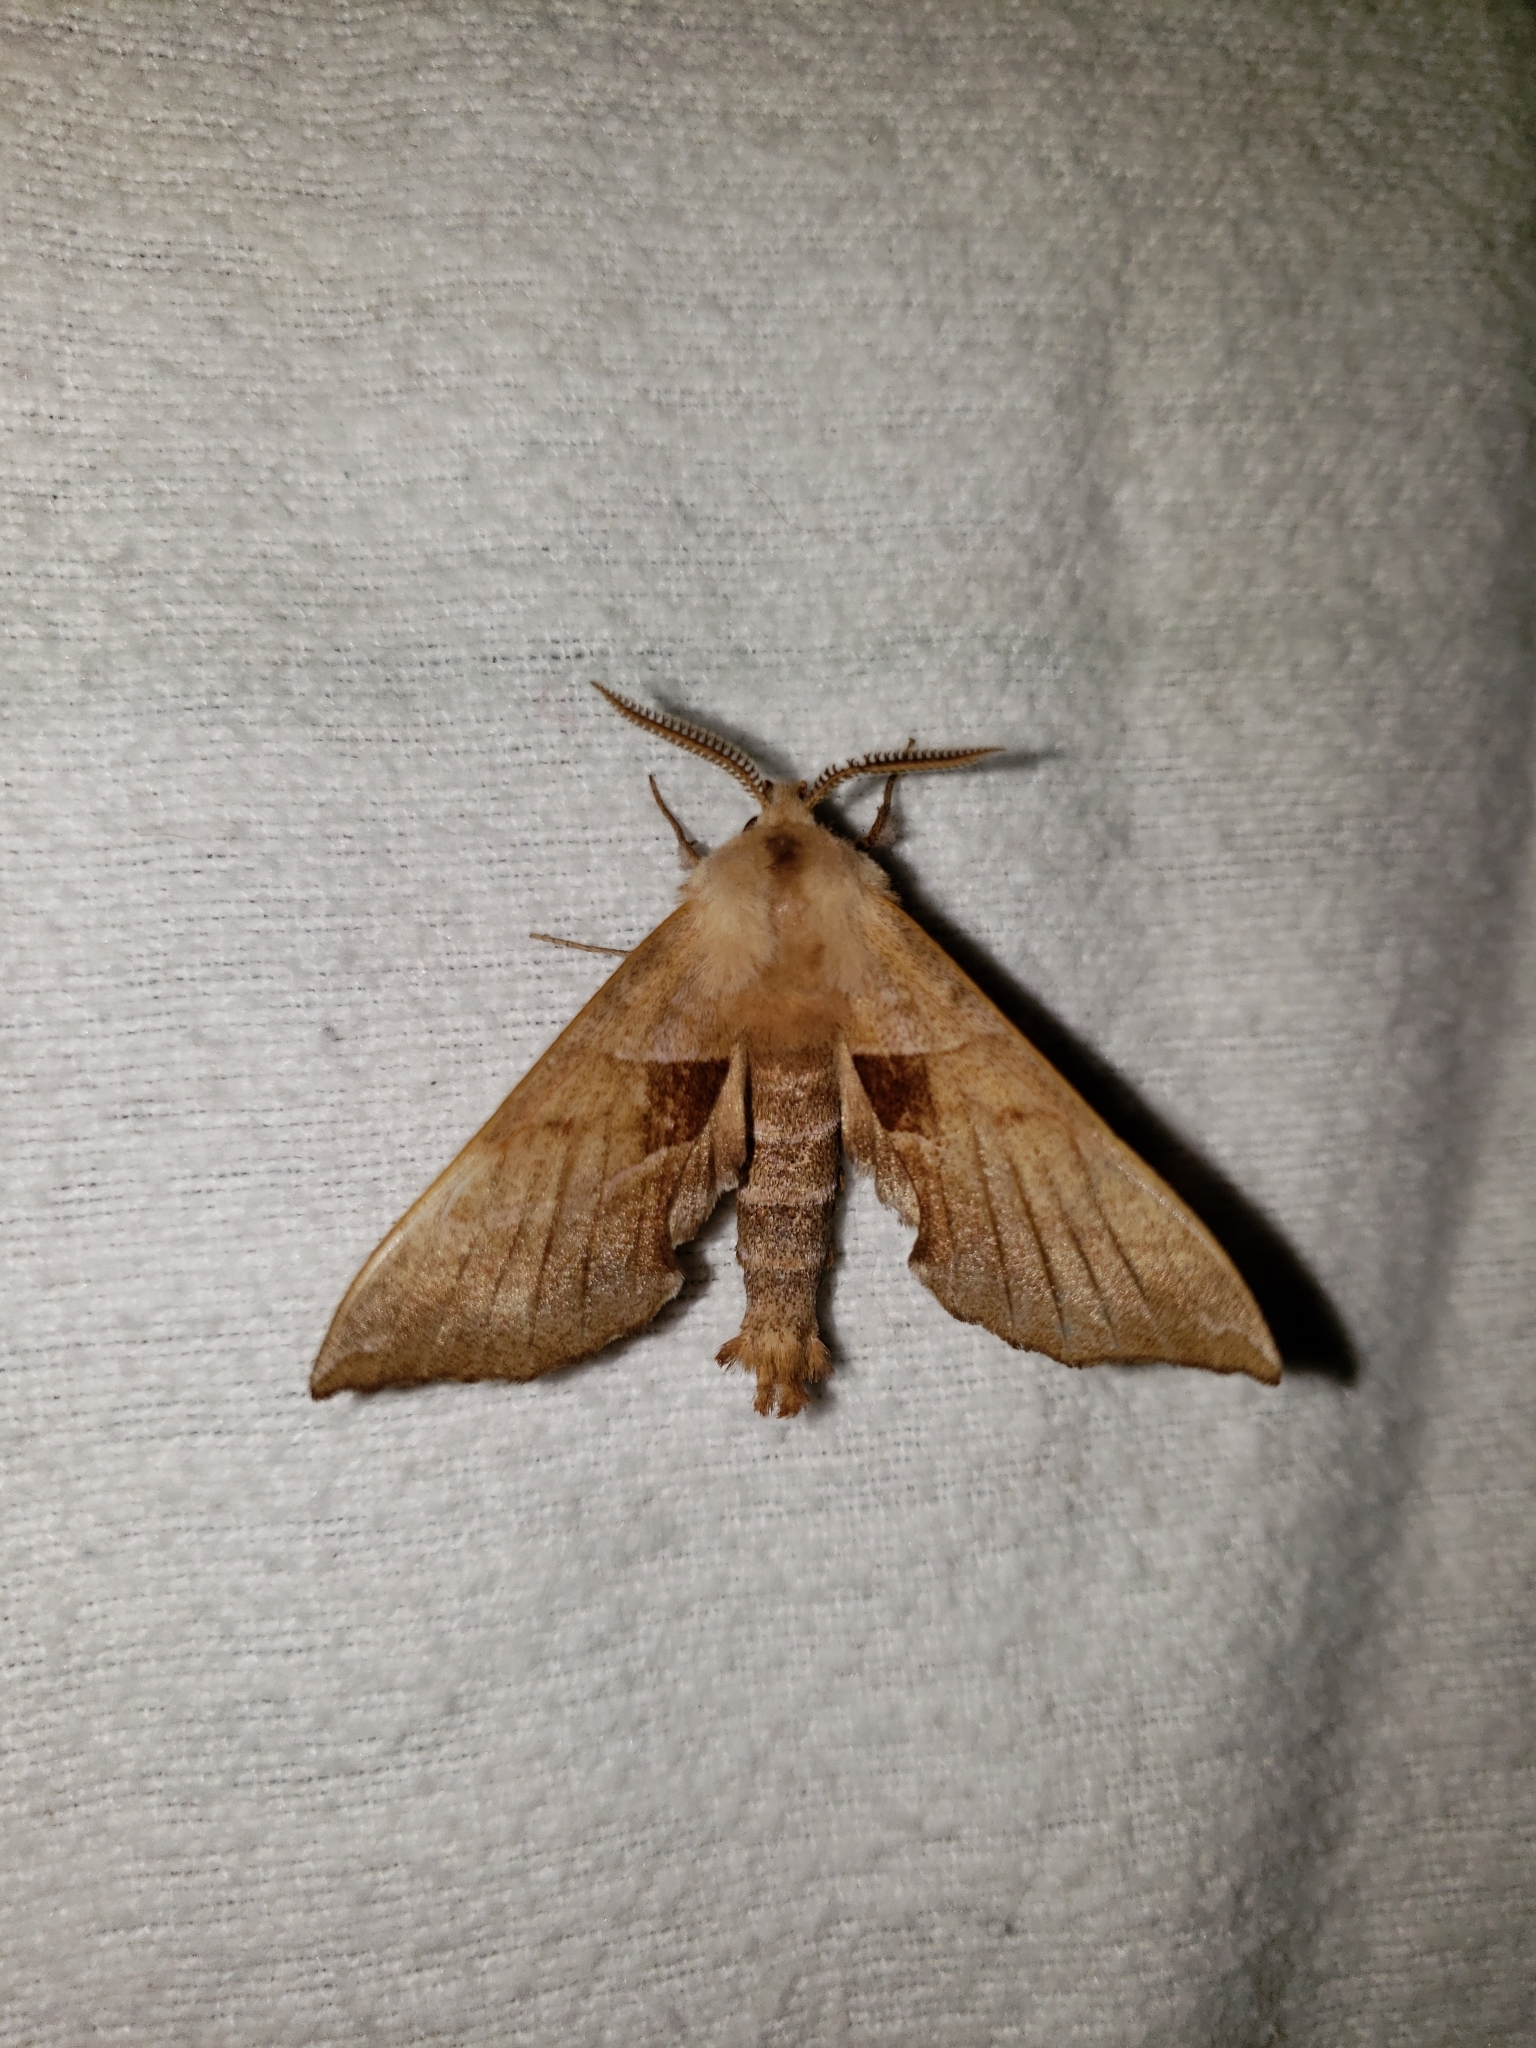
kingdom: Animalia
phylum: Arthropoda
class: Insecta
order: Lepidoptera
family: Sphingidae
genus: Amorpha
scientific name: Amorpha juglandis
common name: Walnut sphinx
